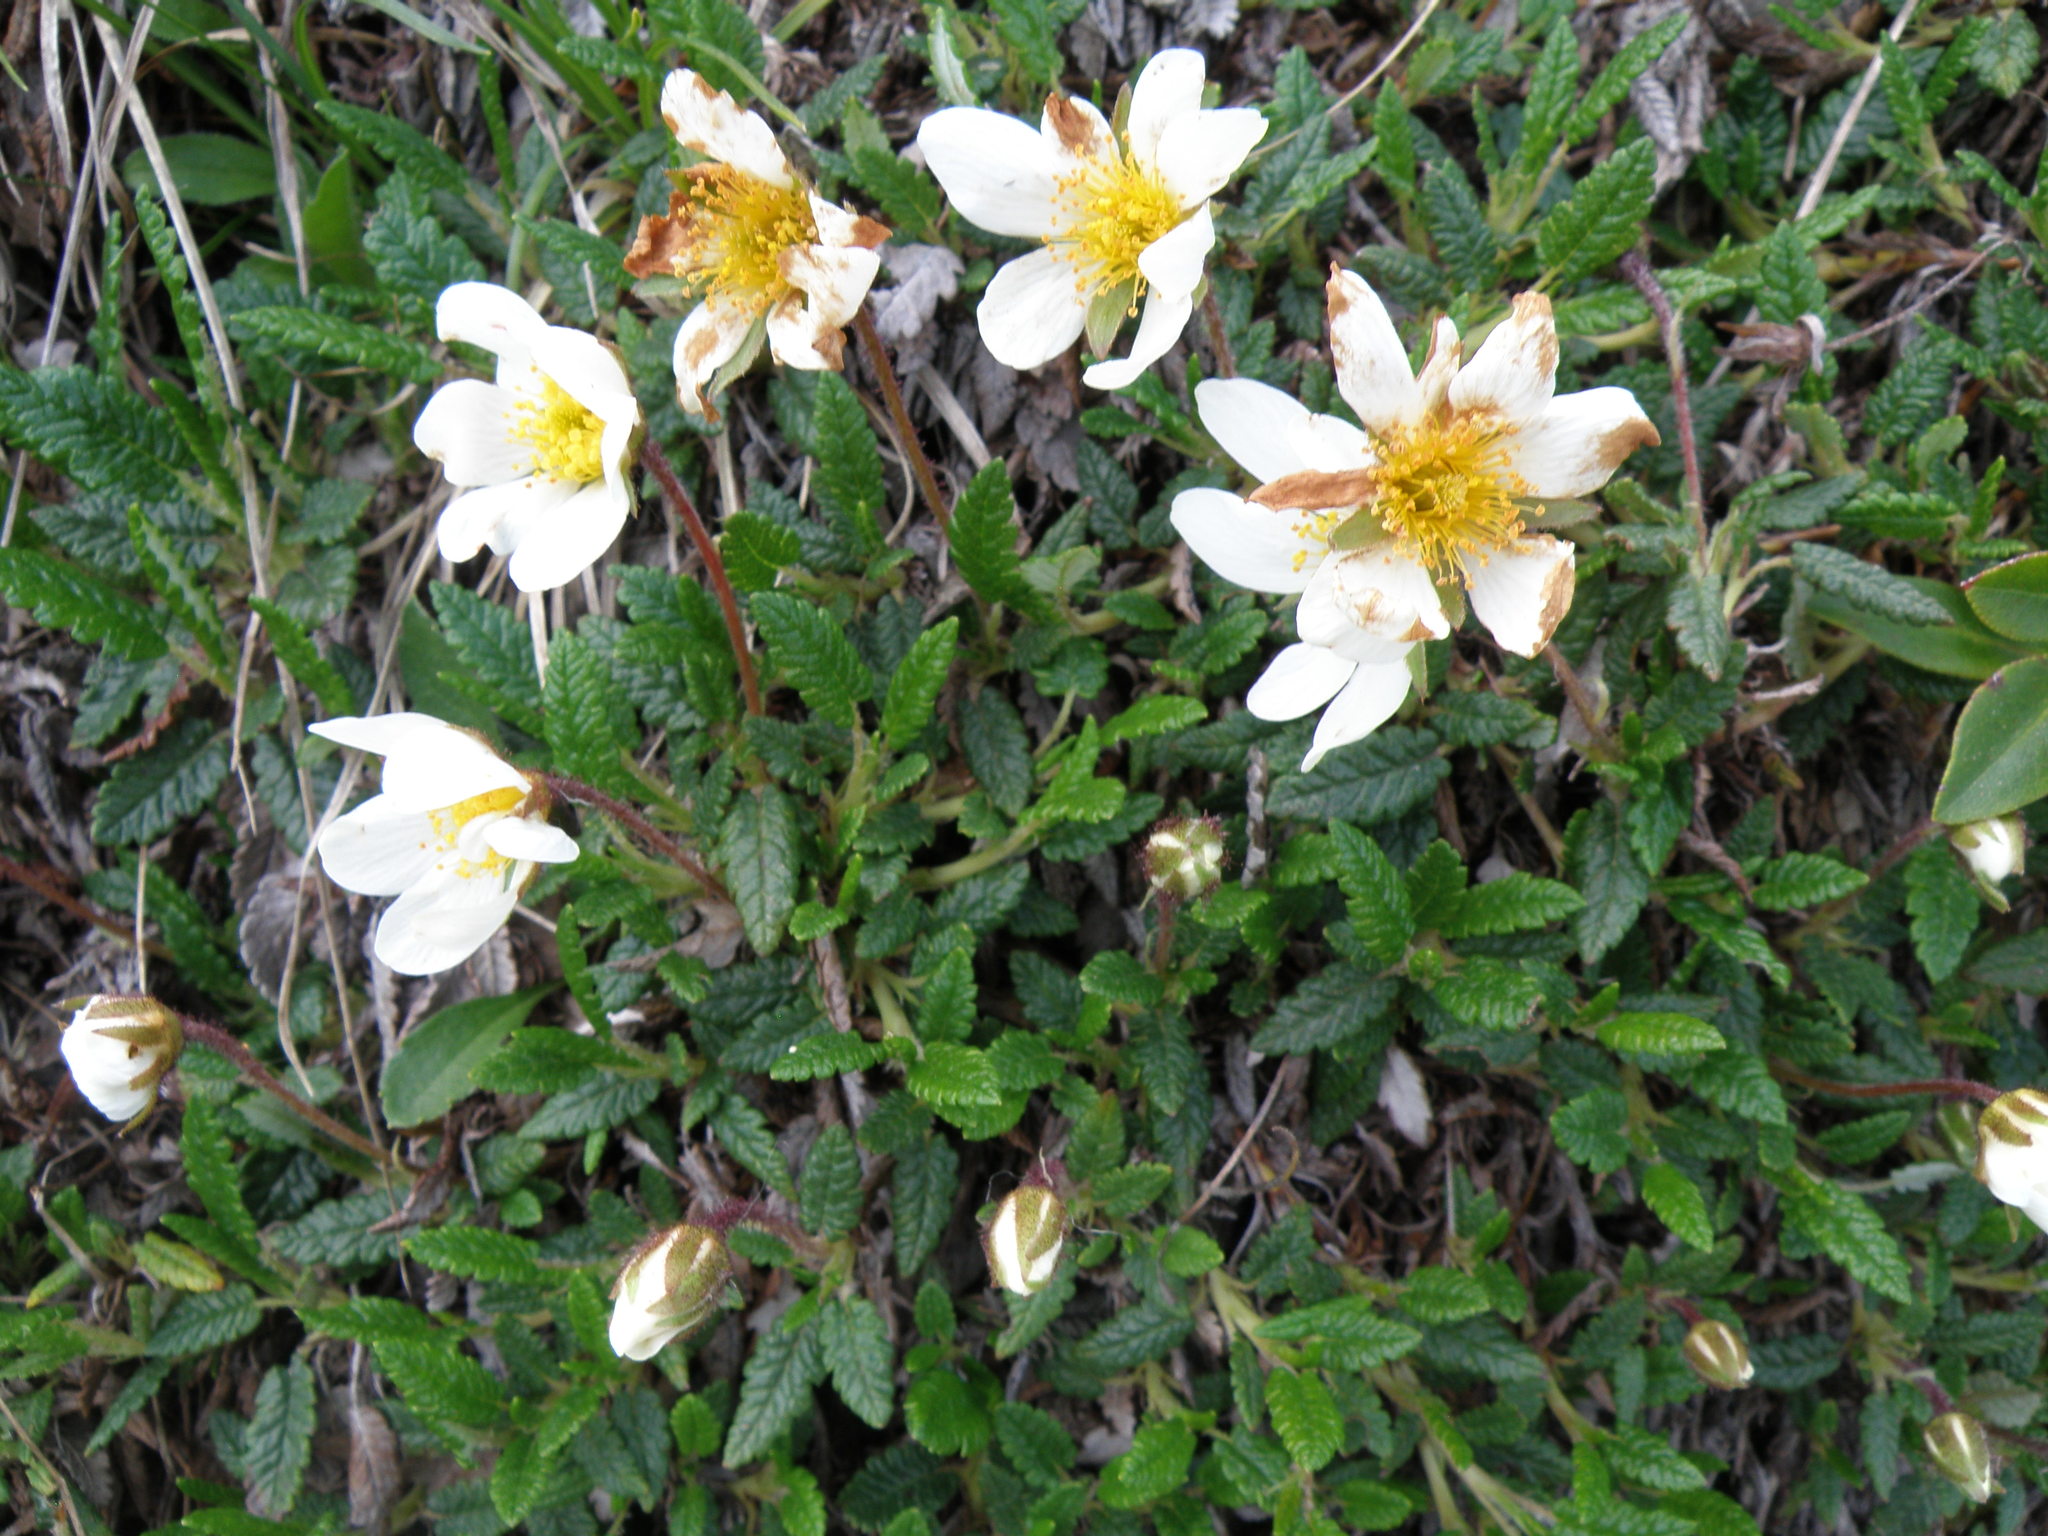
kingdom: Plantae
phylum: Tracheophyta
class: Magnoliopsida
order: Rosales
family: Rosaceae
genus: Dryas
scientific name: Dryas octopetala
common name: Eight-petal mountain-avens
